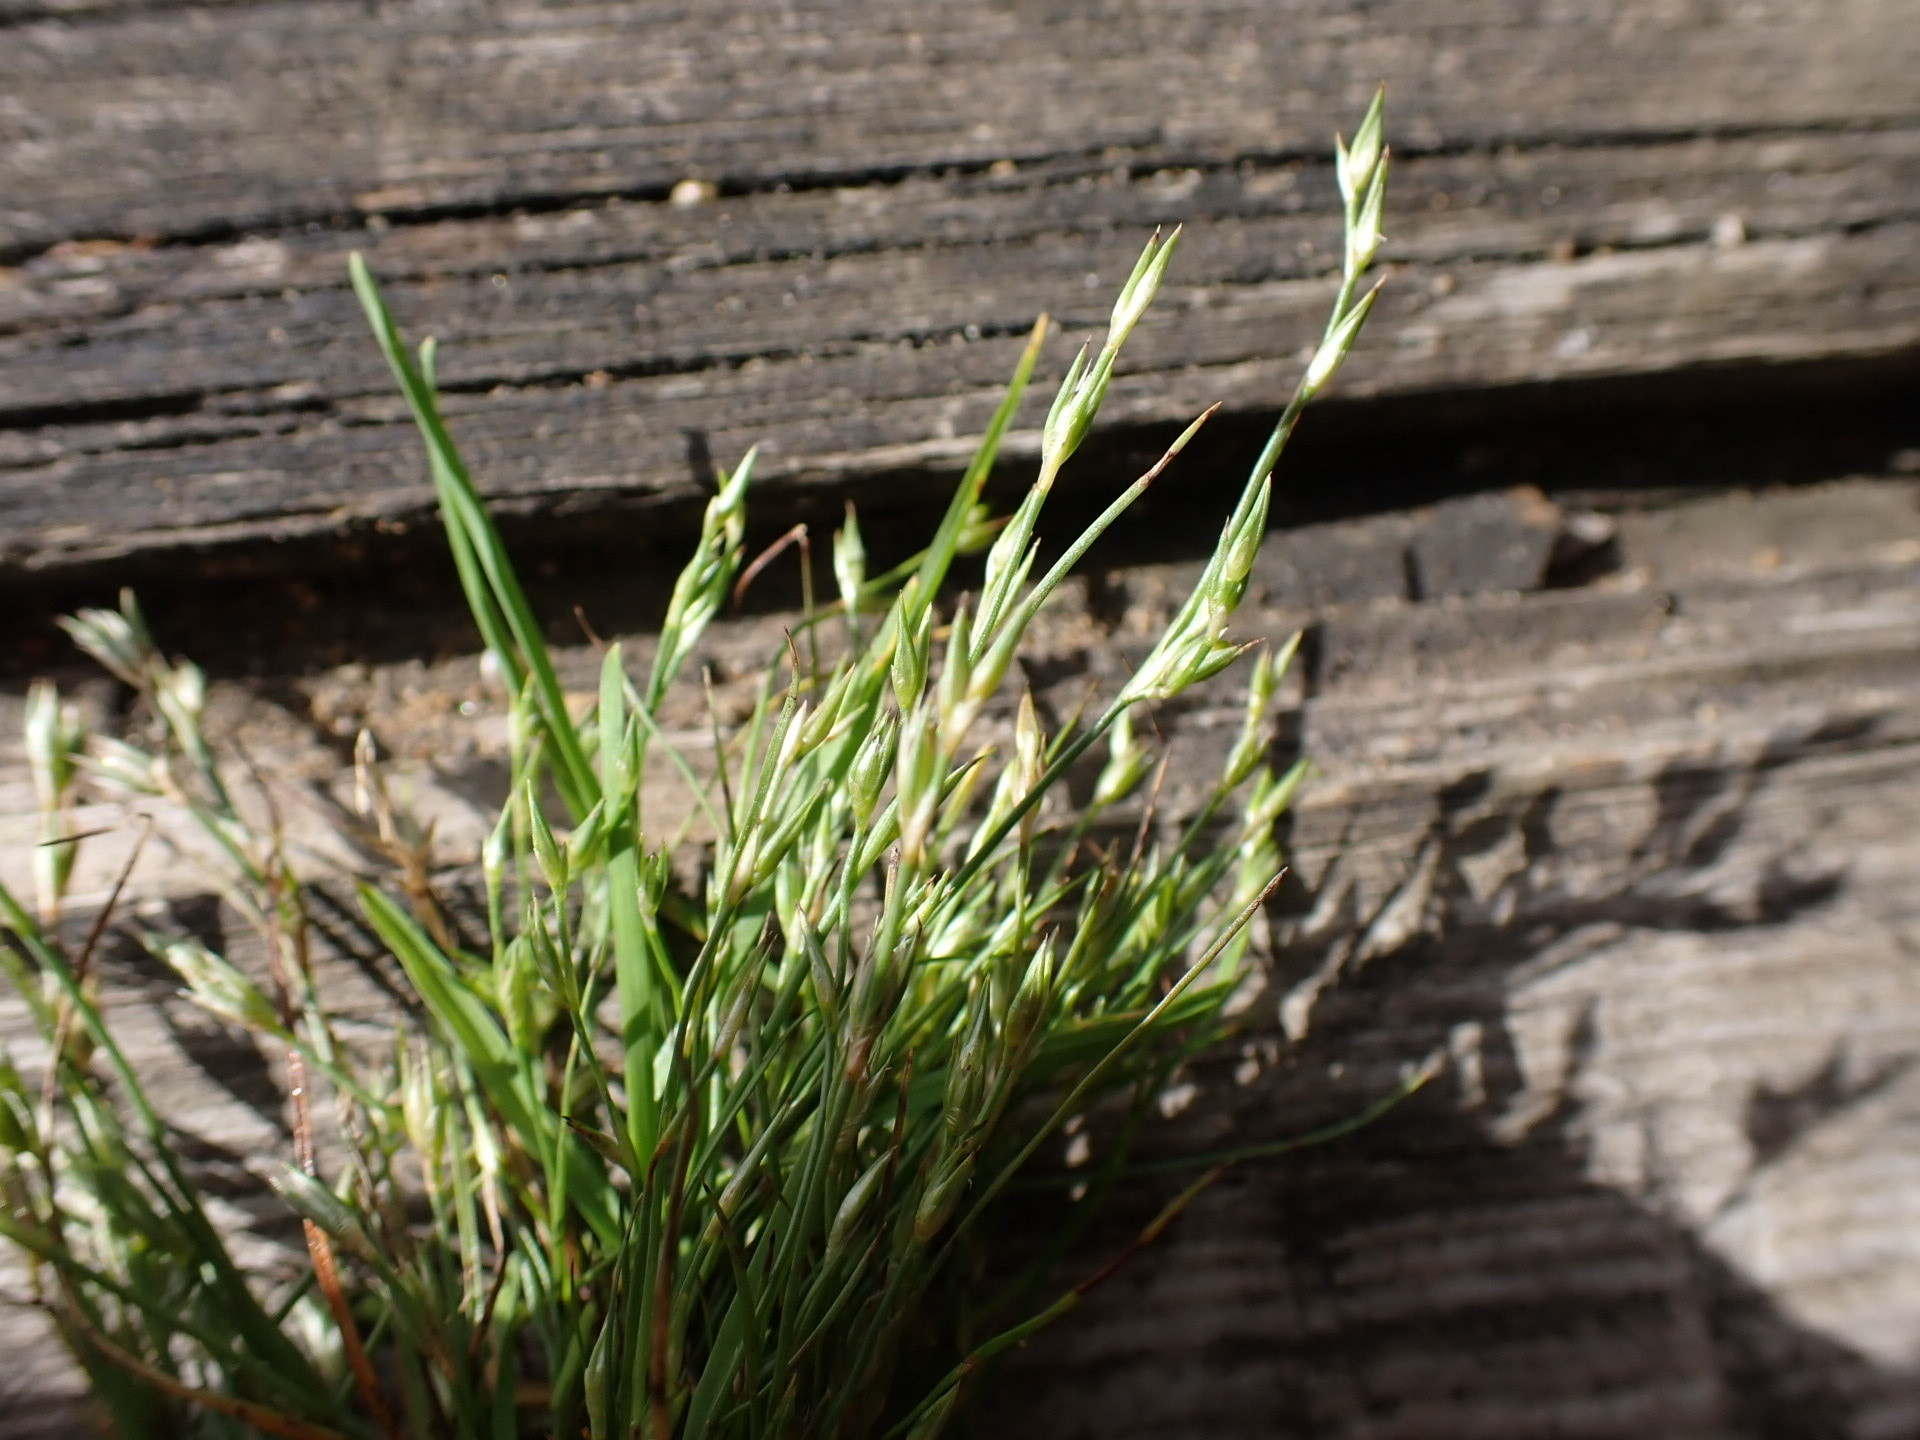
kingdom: Plantae
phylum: Tracheophyta
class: Liliopsida
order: Poales
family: Juncaceae
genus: Juncus
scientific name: Juncus bufonius
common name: Toad rush
